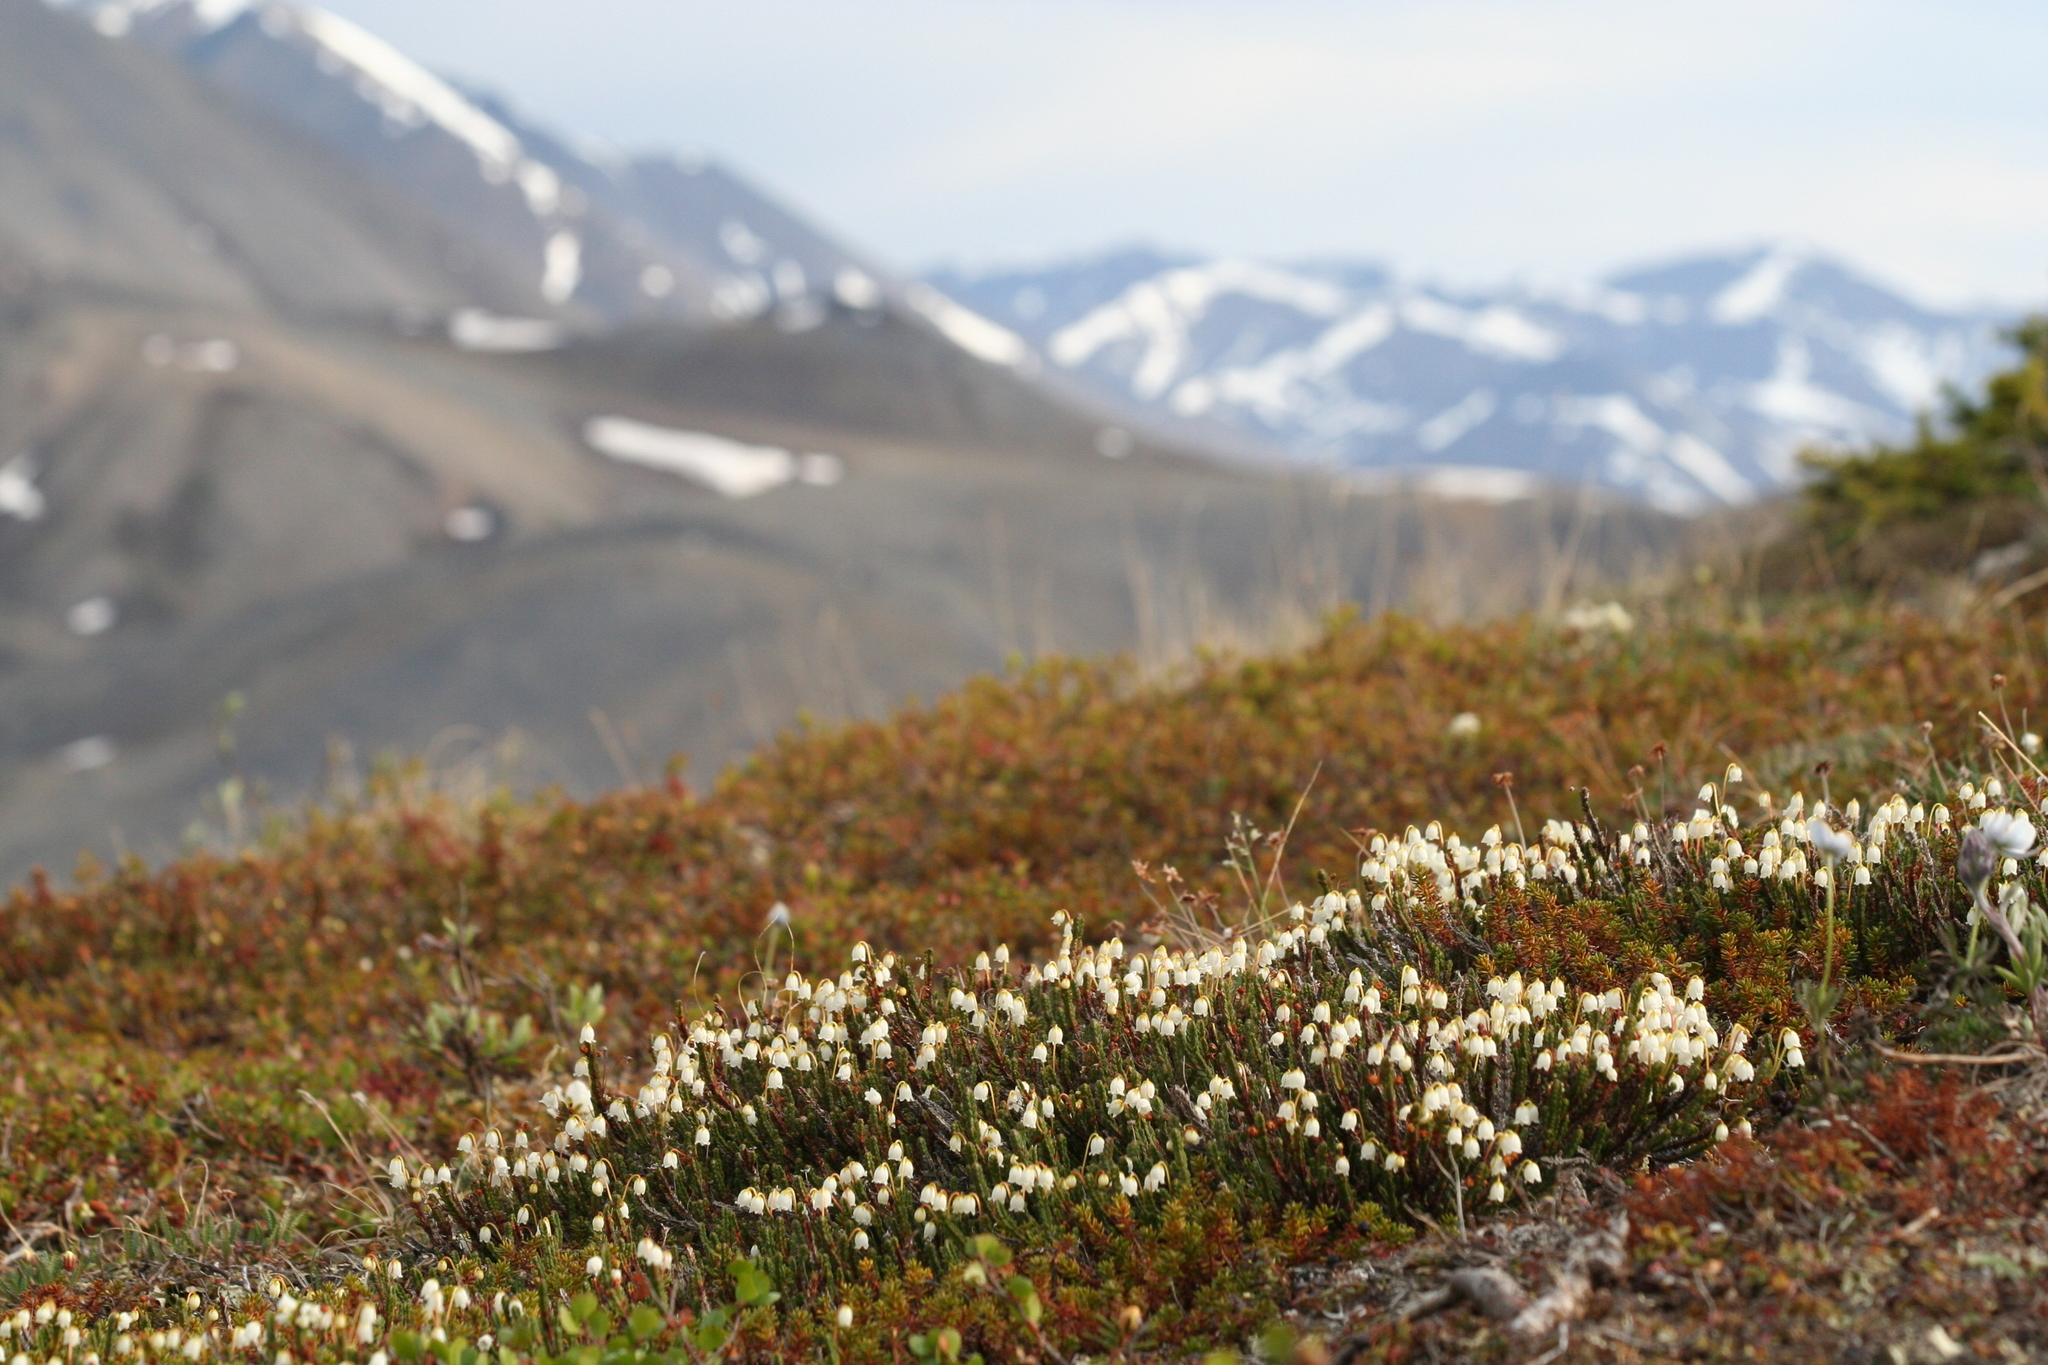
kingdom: Plantae
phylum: Tracheophyta
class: Magnoliopsida
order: Ericales
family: Ericaceae
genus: Cassiope
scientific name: Cassiope tetragona
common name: Arctic bell heather
